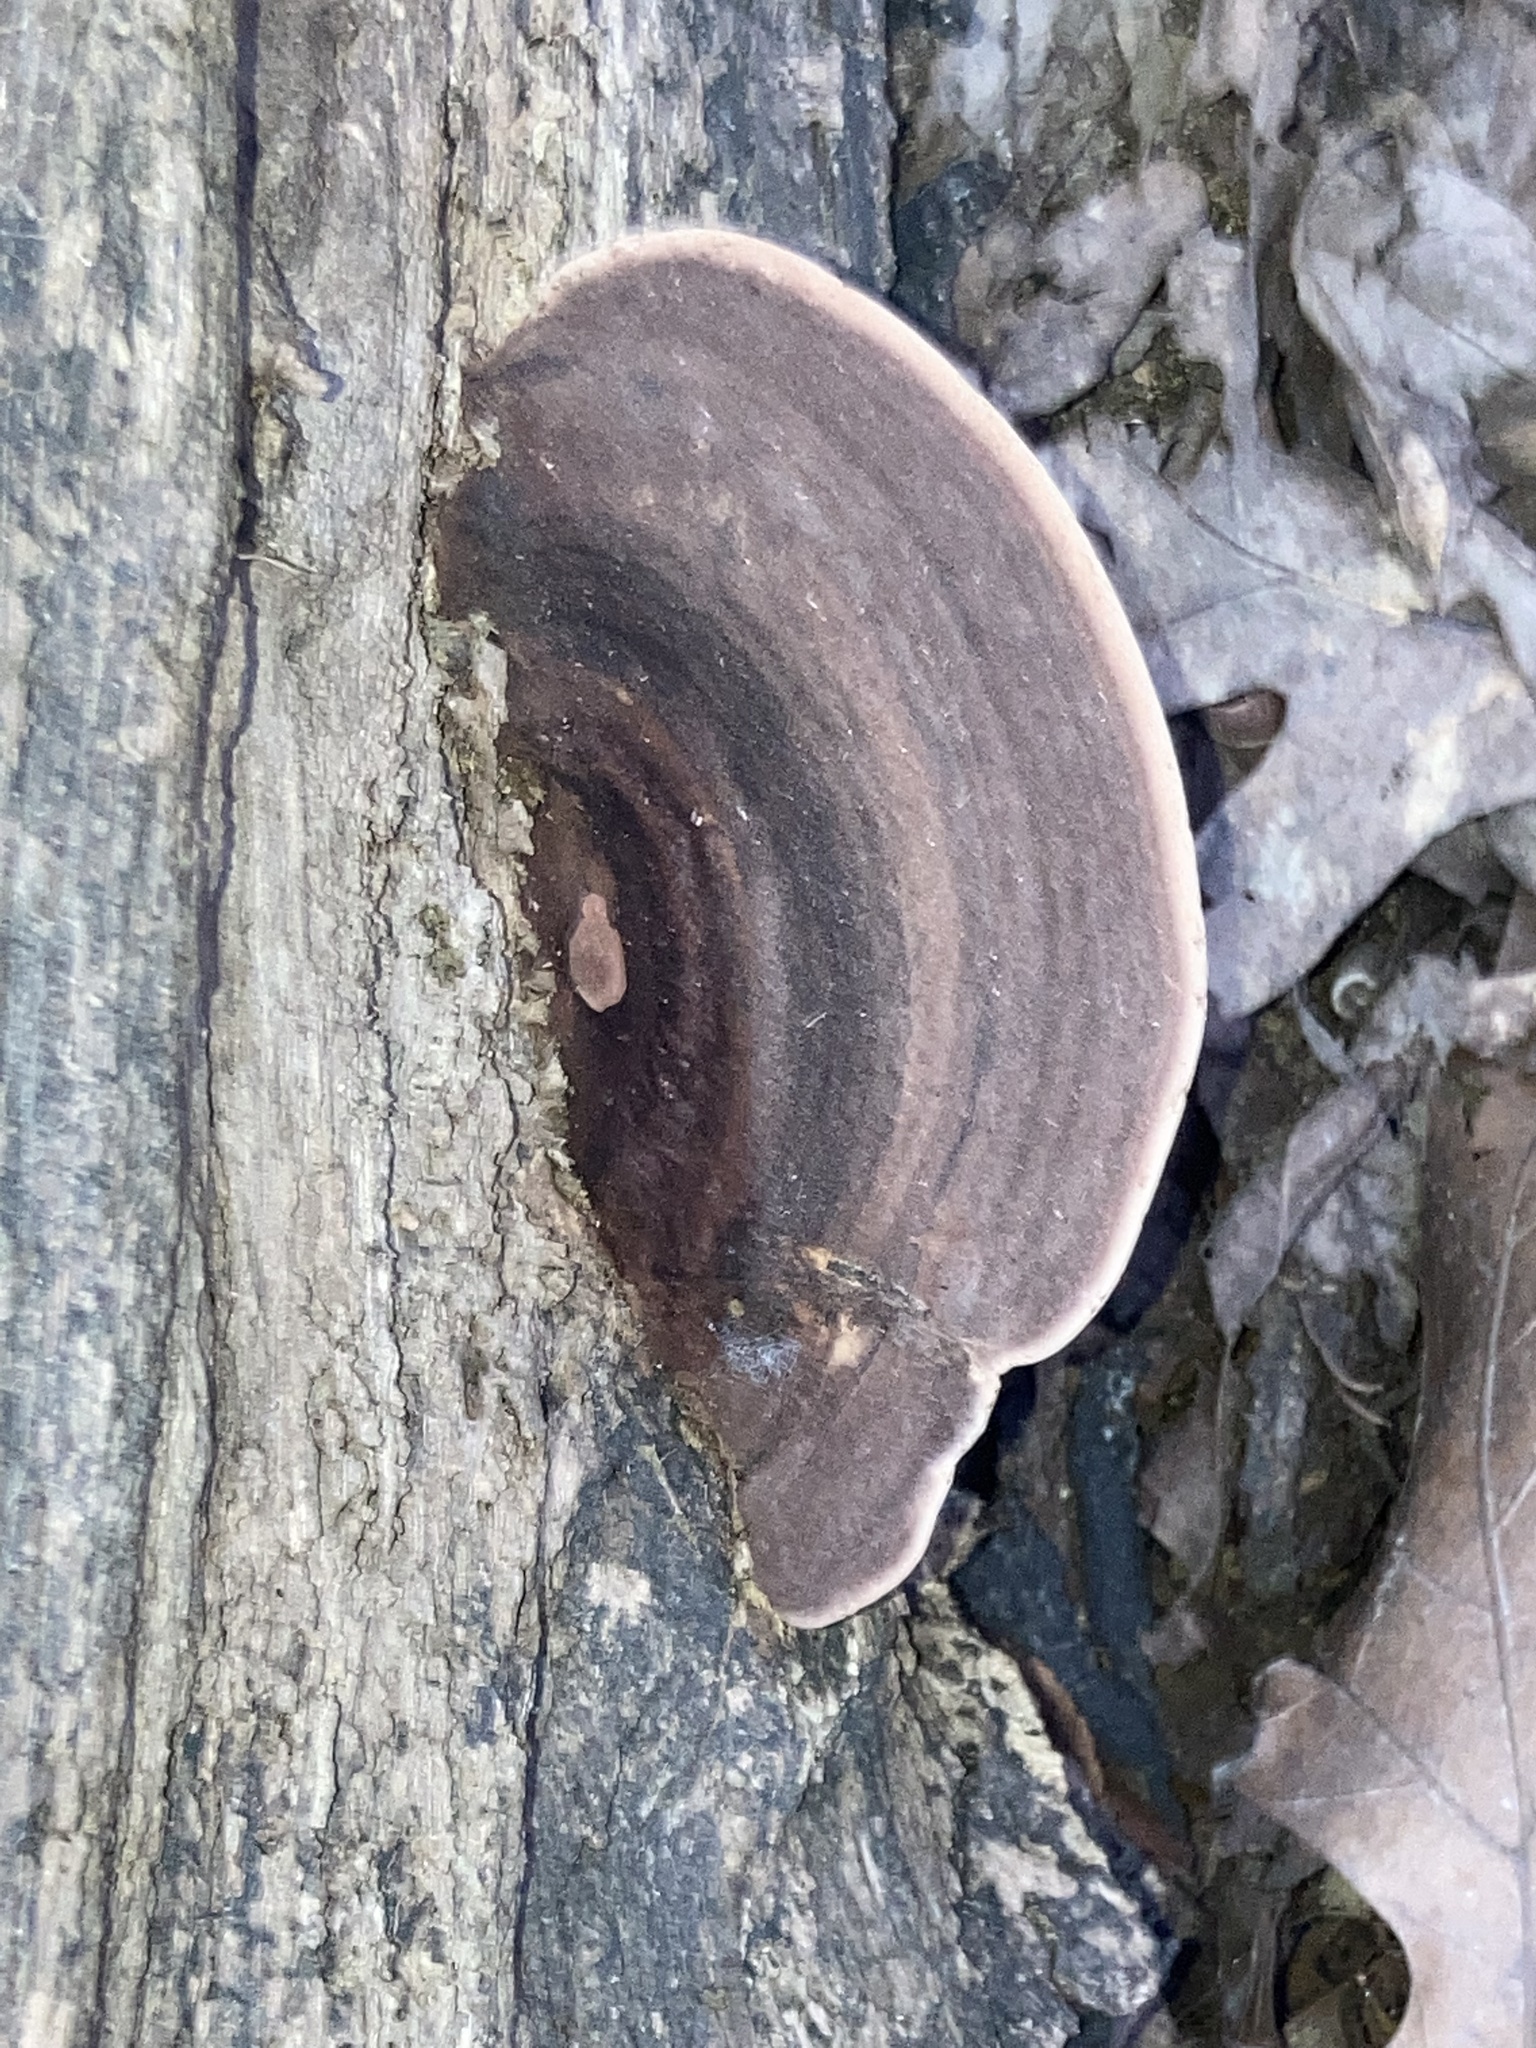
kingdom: Fungi
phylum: Basidiomycota
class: Agaricomycetes
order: Polyporales
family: Steccherinaceae
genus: Nigroporus
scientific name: Nigroporus vinosus
